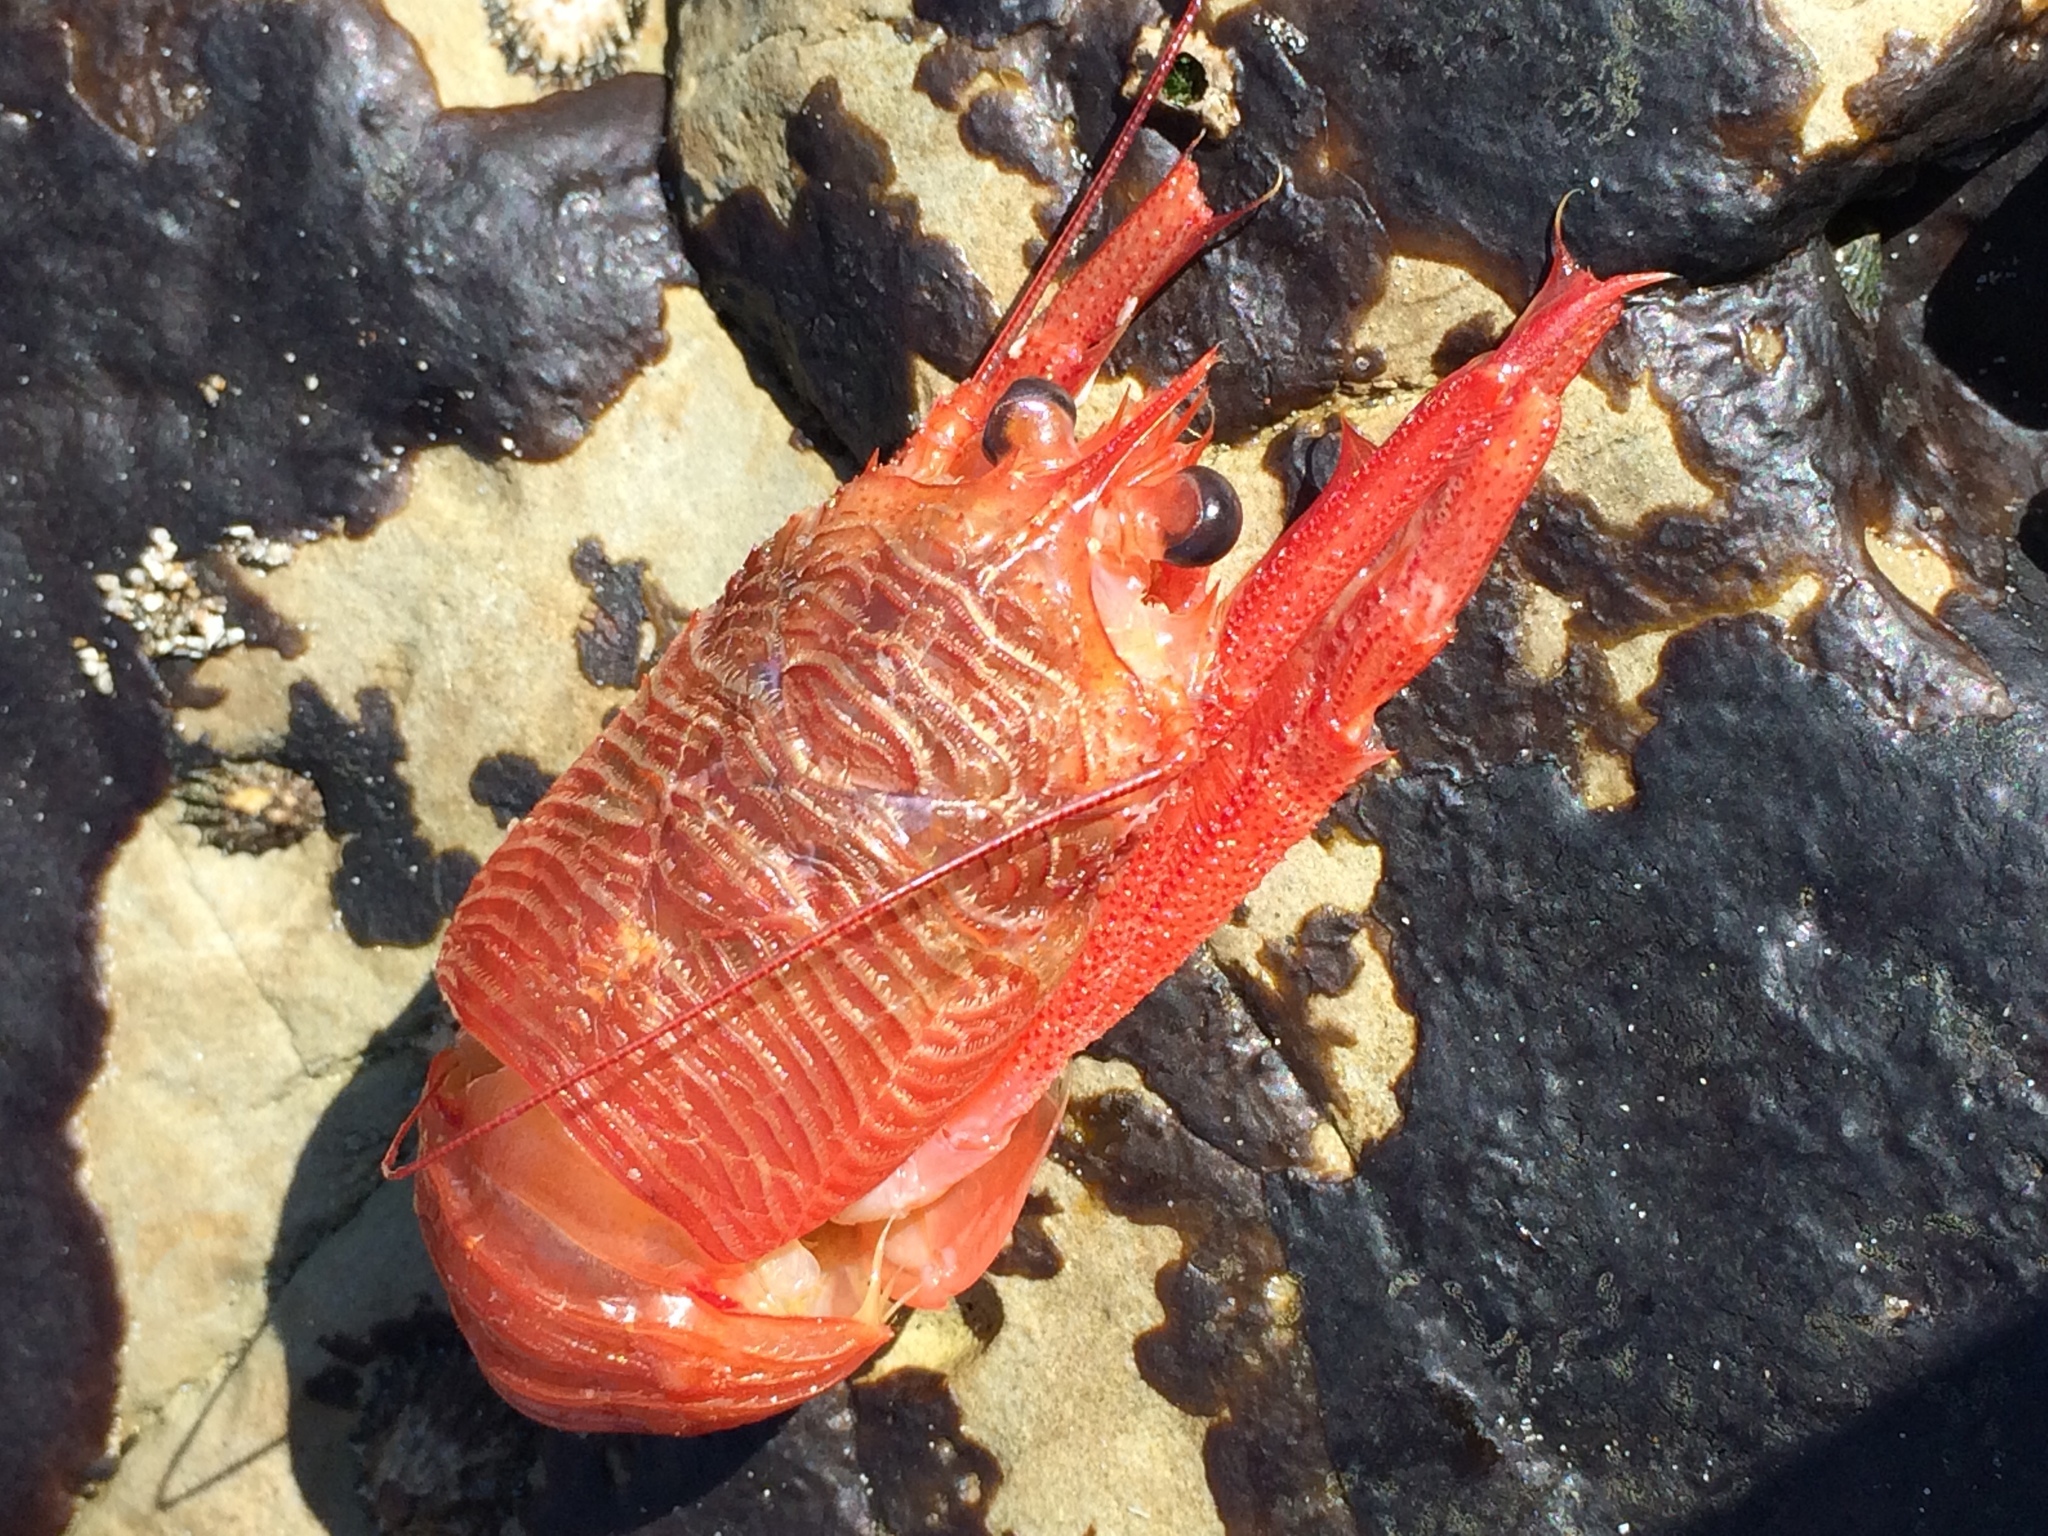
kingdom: Animalia
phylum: Arthropoda
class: Malacostraca
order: Decapoda
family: Munididae
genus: Grimothea
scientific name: Grimothea planipes
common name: Pelagic red crab
